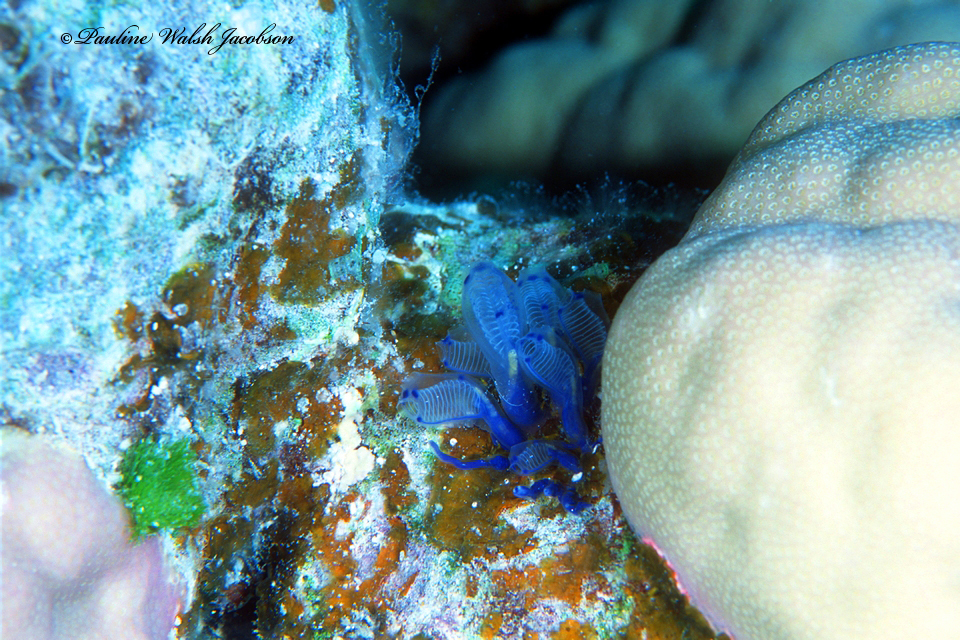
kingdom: Animalia
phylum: Chordata
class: Ascidiacea
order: Aplousobranchia
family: Clavelinidae
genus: Clavelina
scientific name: Clavelina moluccensis
